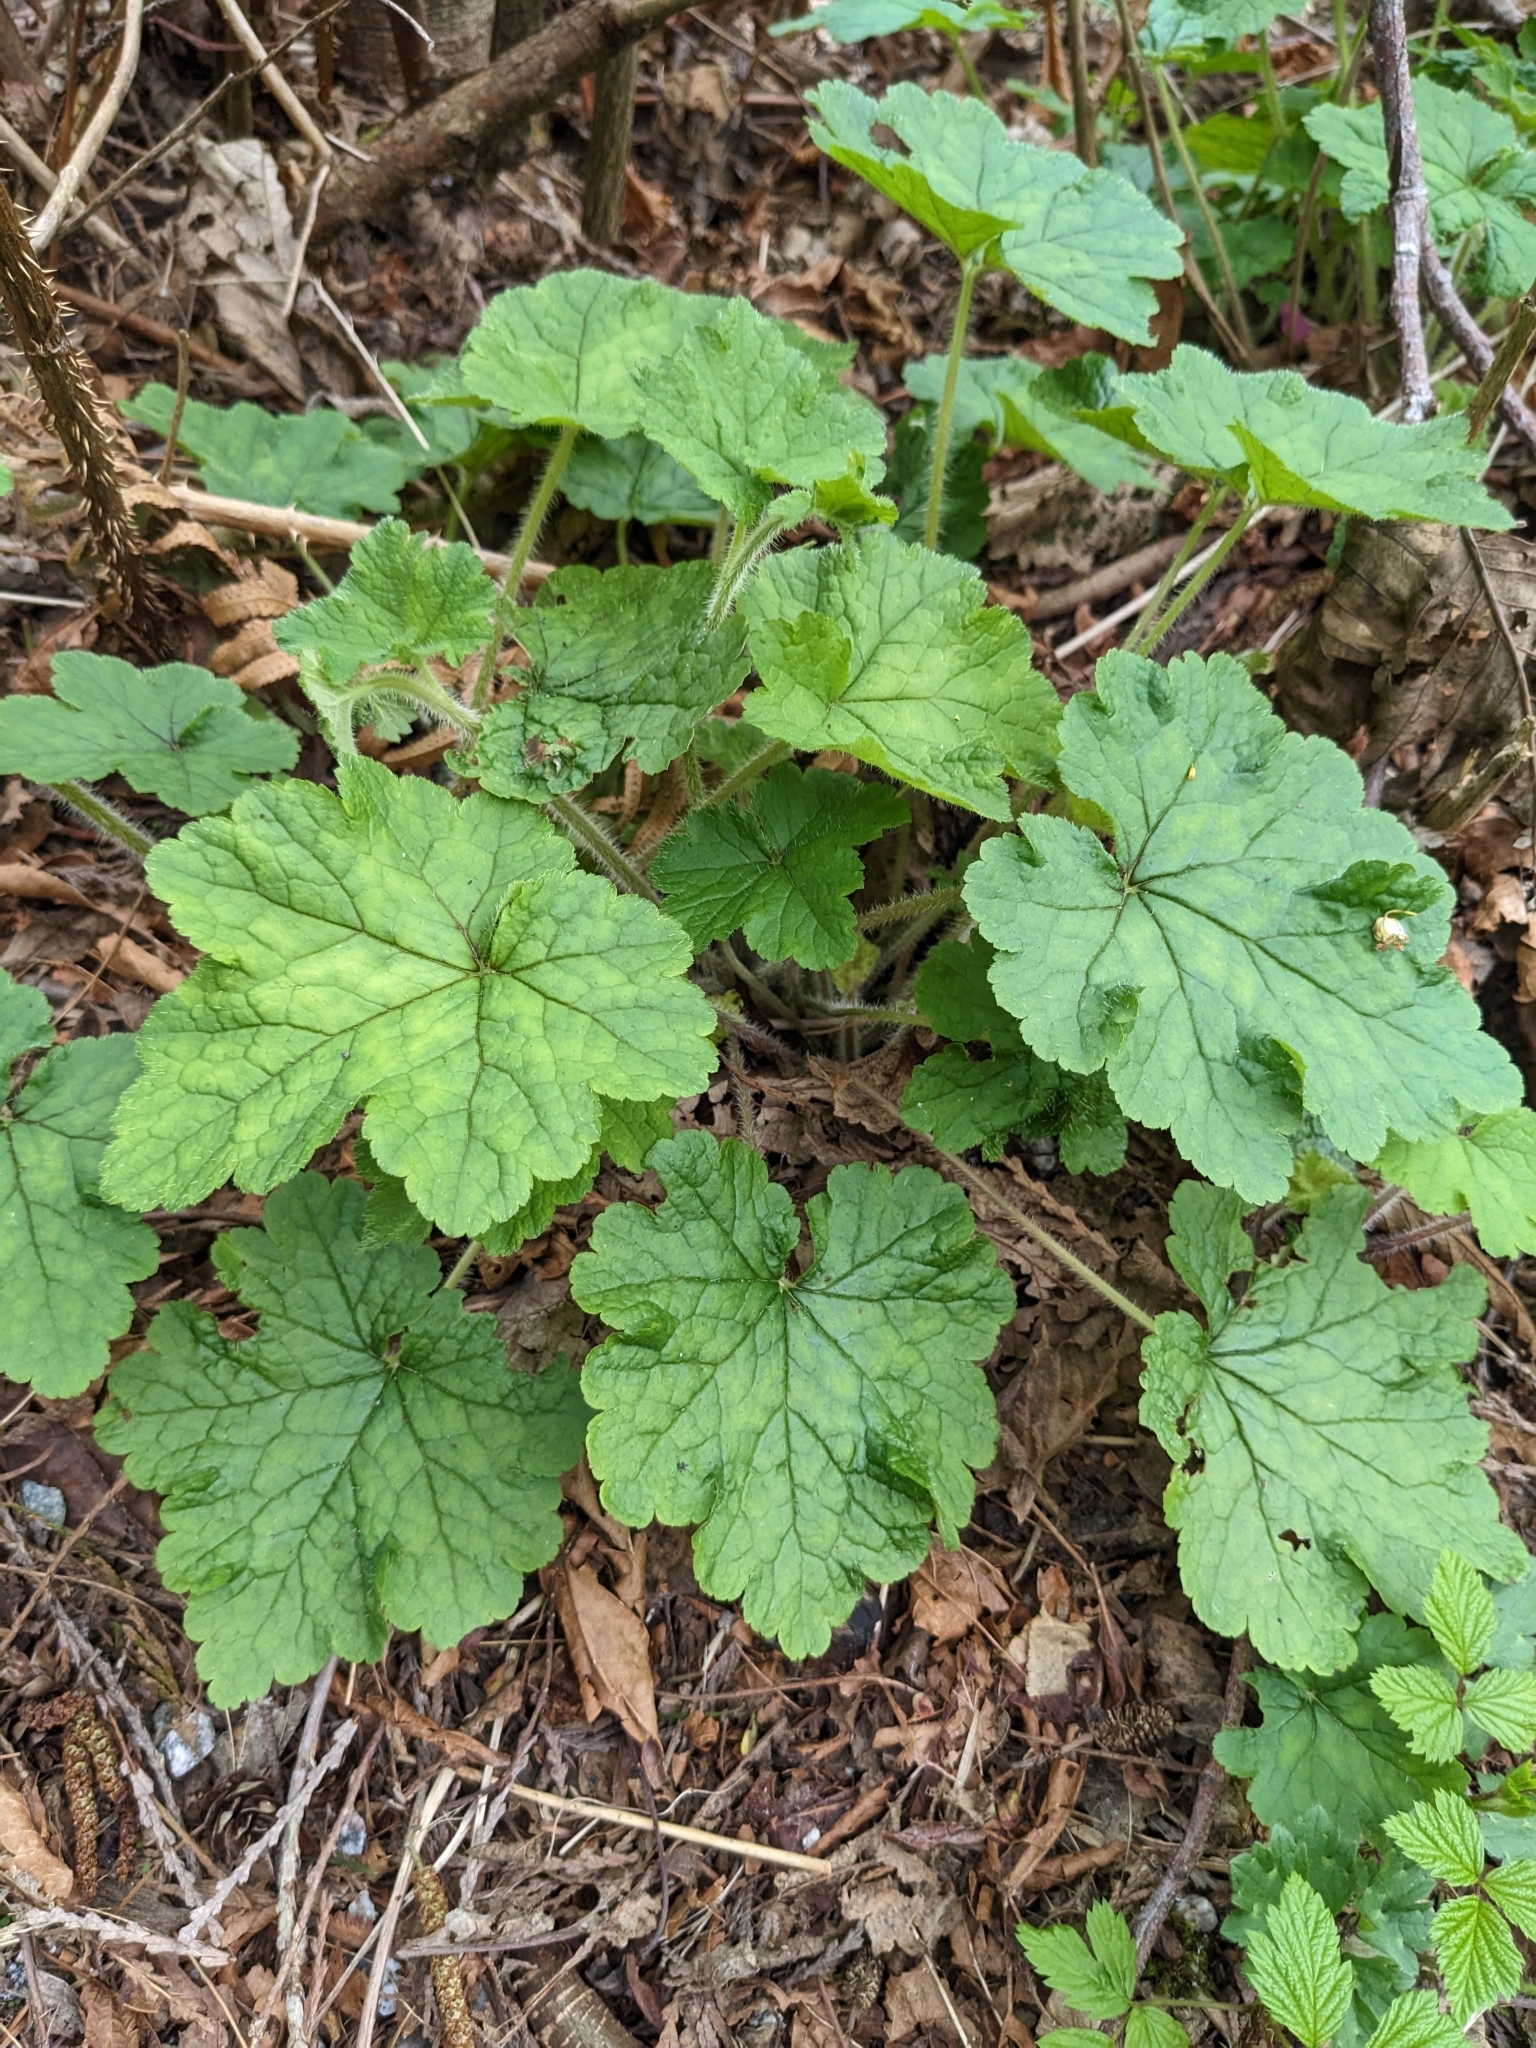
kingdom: Plantae
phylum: Tracheophyta
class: Magnoliopsida
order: Saxifragales
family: Saxifragaceae
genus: Tellima
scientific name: Tellima grandiflora
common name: Fringecups
